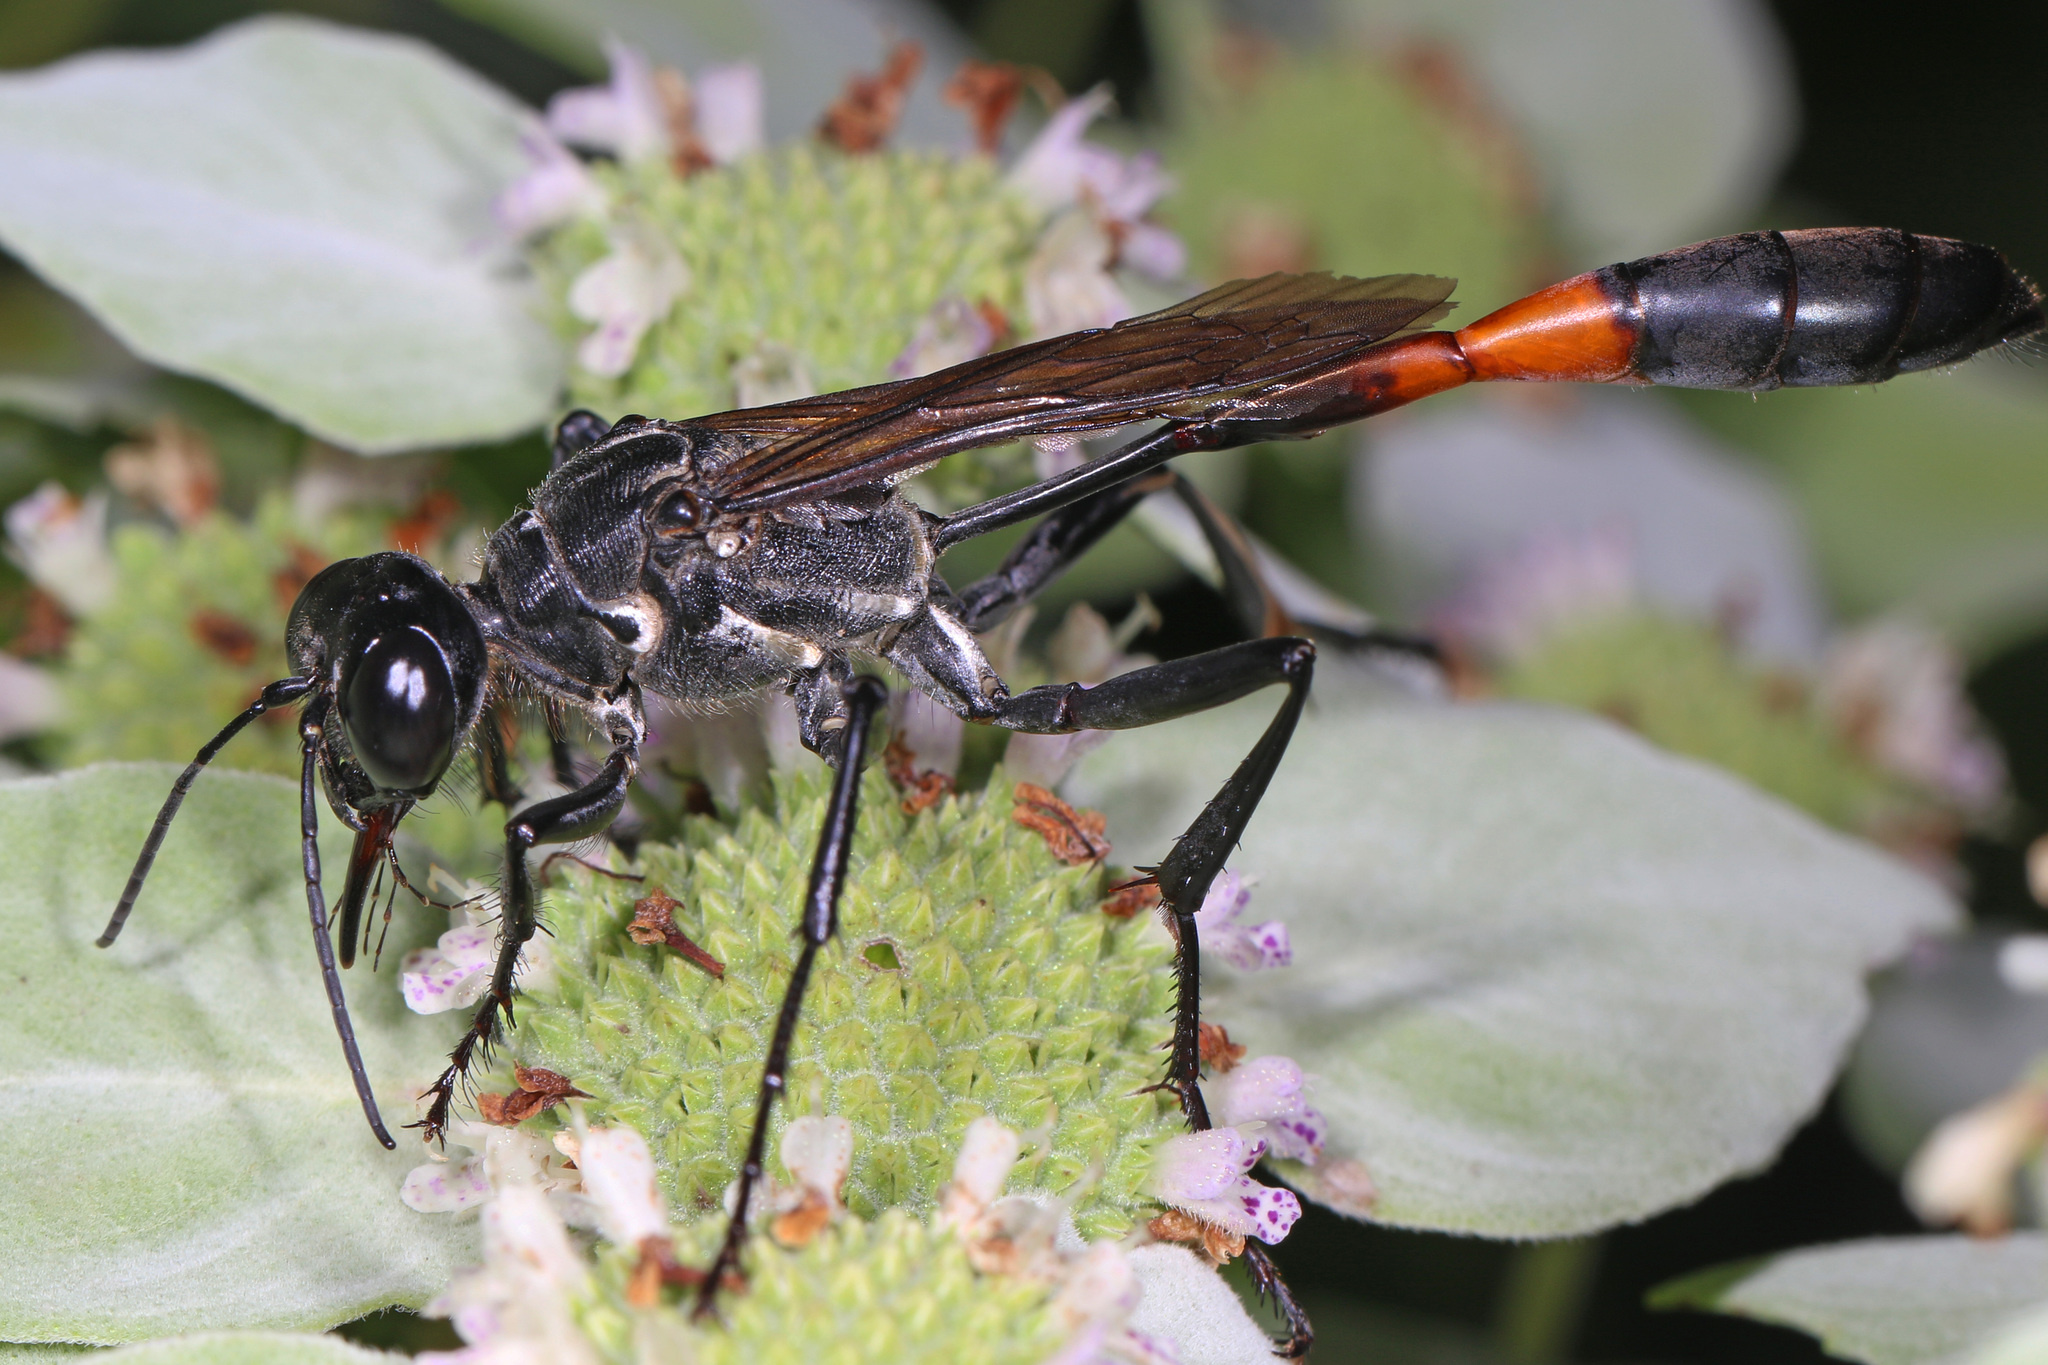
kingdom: Animalia
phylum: Arthropoda
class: Insecta
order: Hymenoptera
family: Sphecidae
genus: Ammophila
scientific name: Ammophila procera
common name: Common thread-waisted wasp
